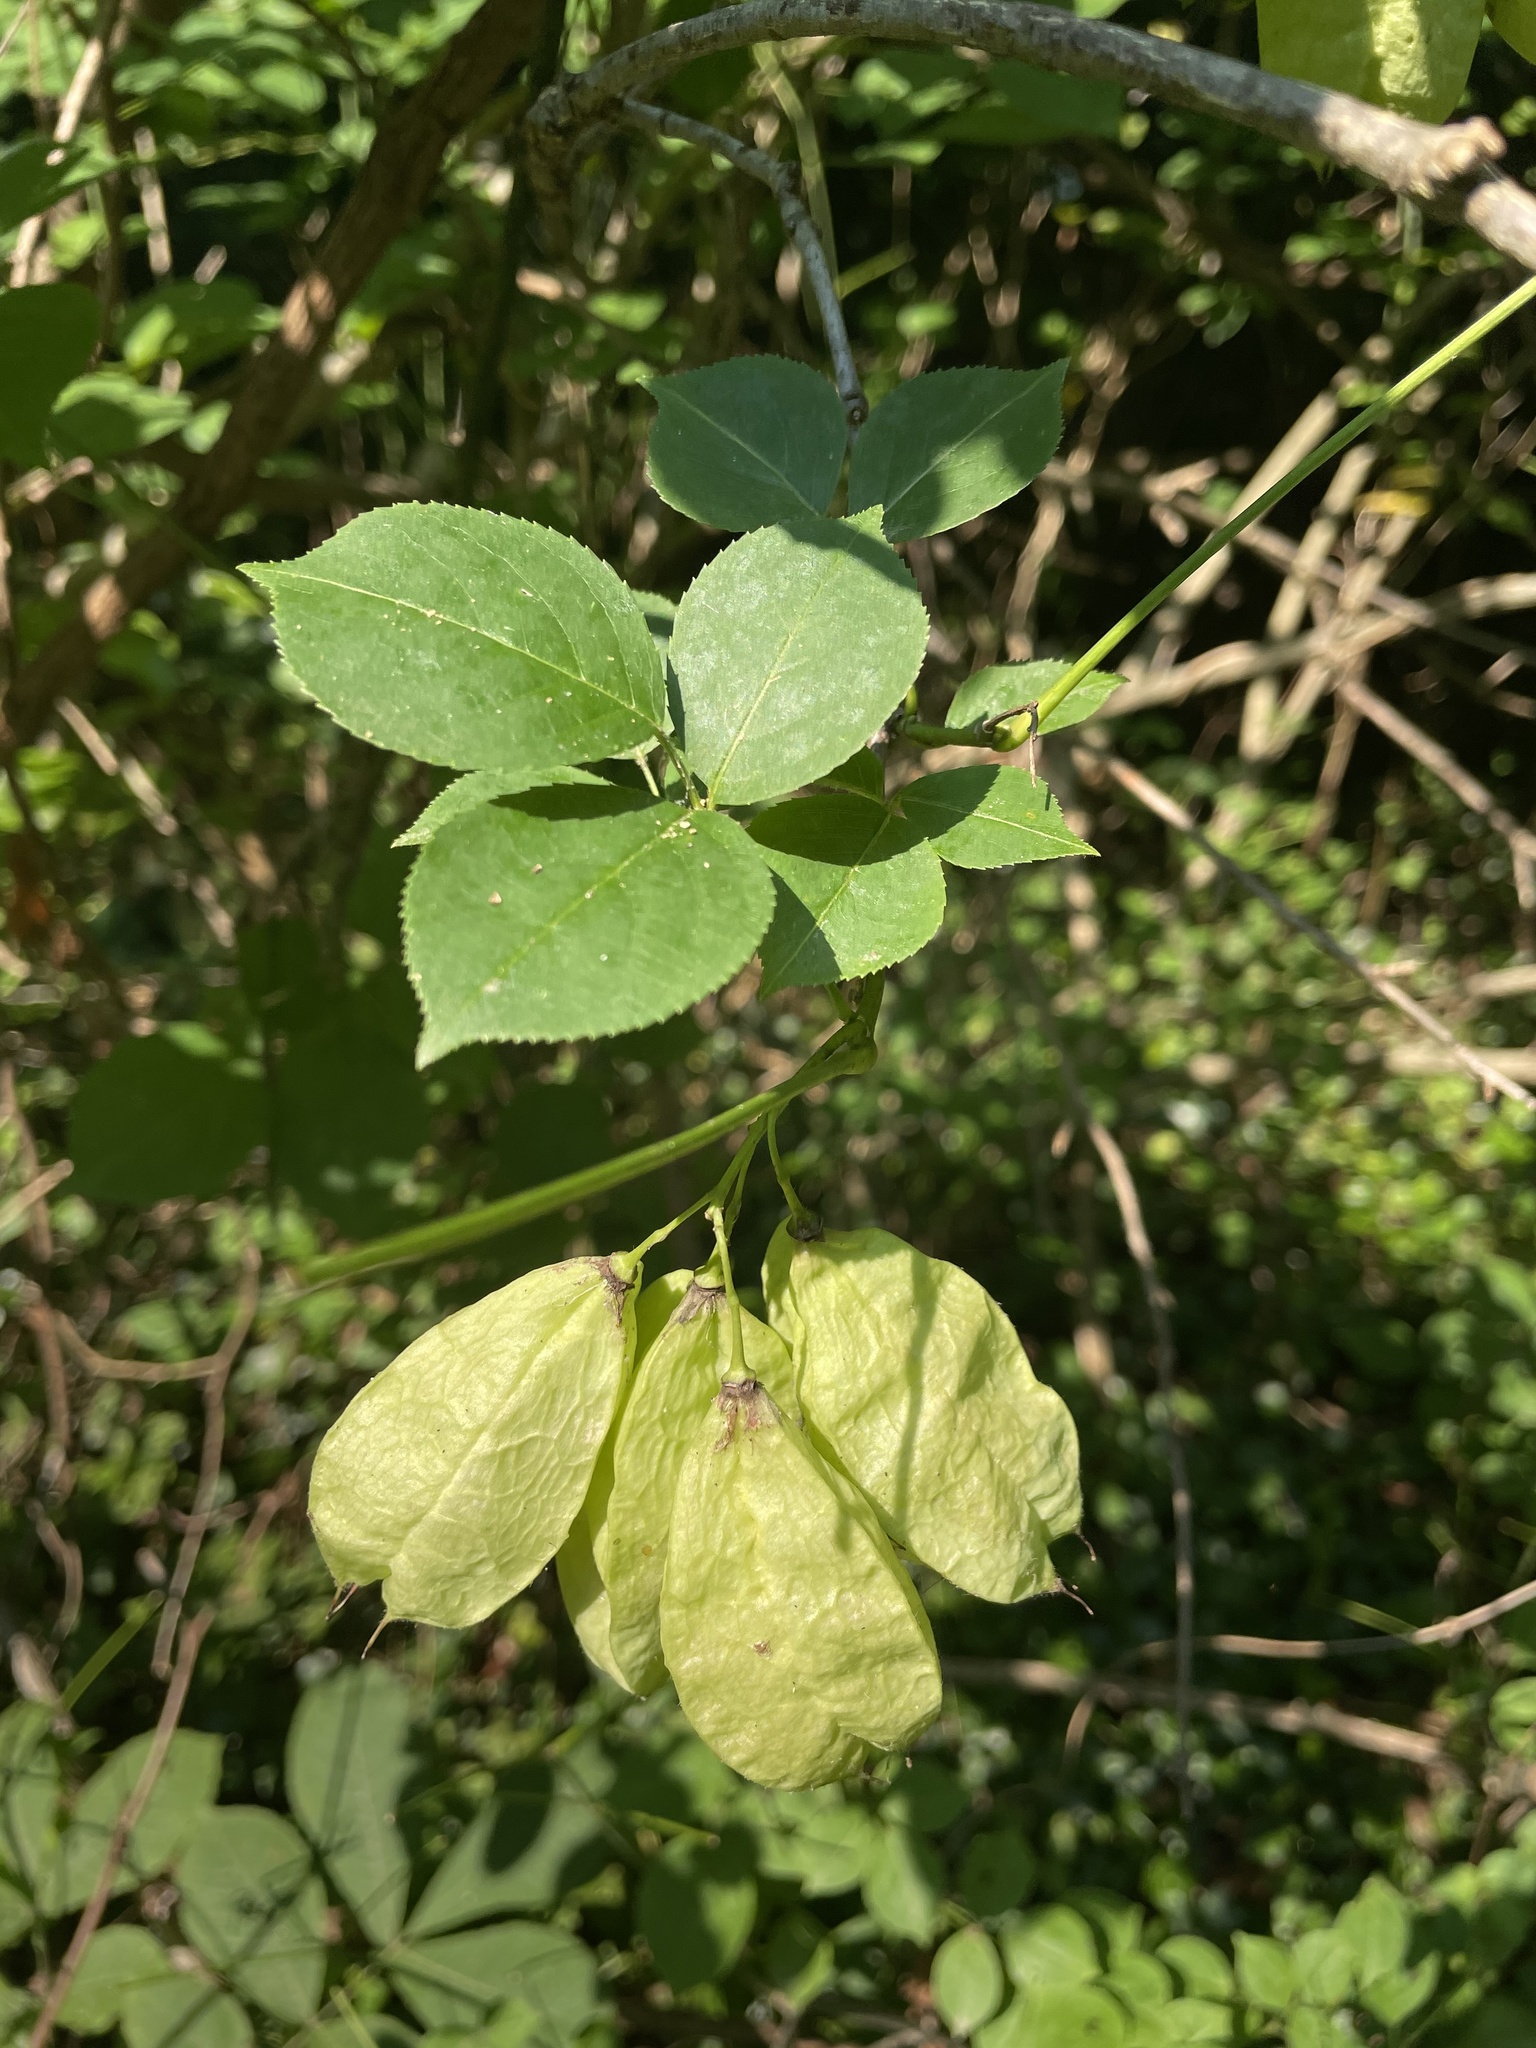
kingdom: Plantae
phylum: Tracheophyta
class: Magnoliopsida
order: Crossosomatales
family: Staphyleaceae
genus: Staphylea
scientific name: Staphylea trifolia
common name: American bladdernut
